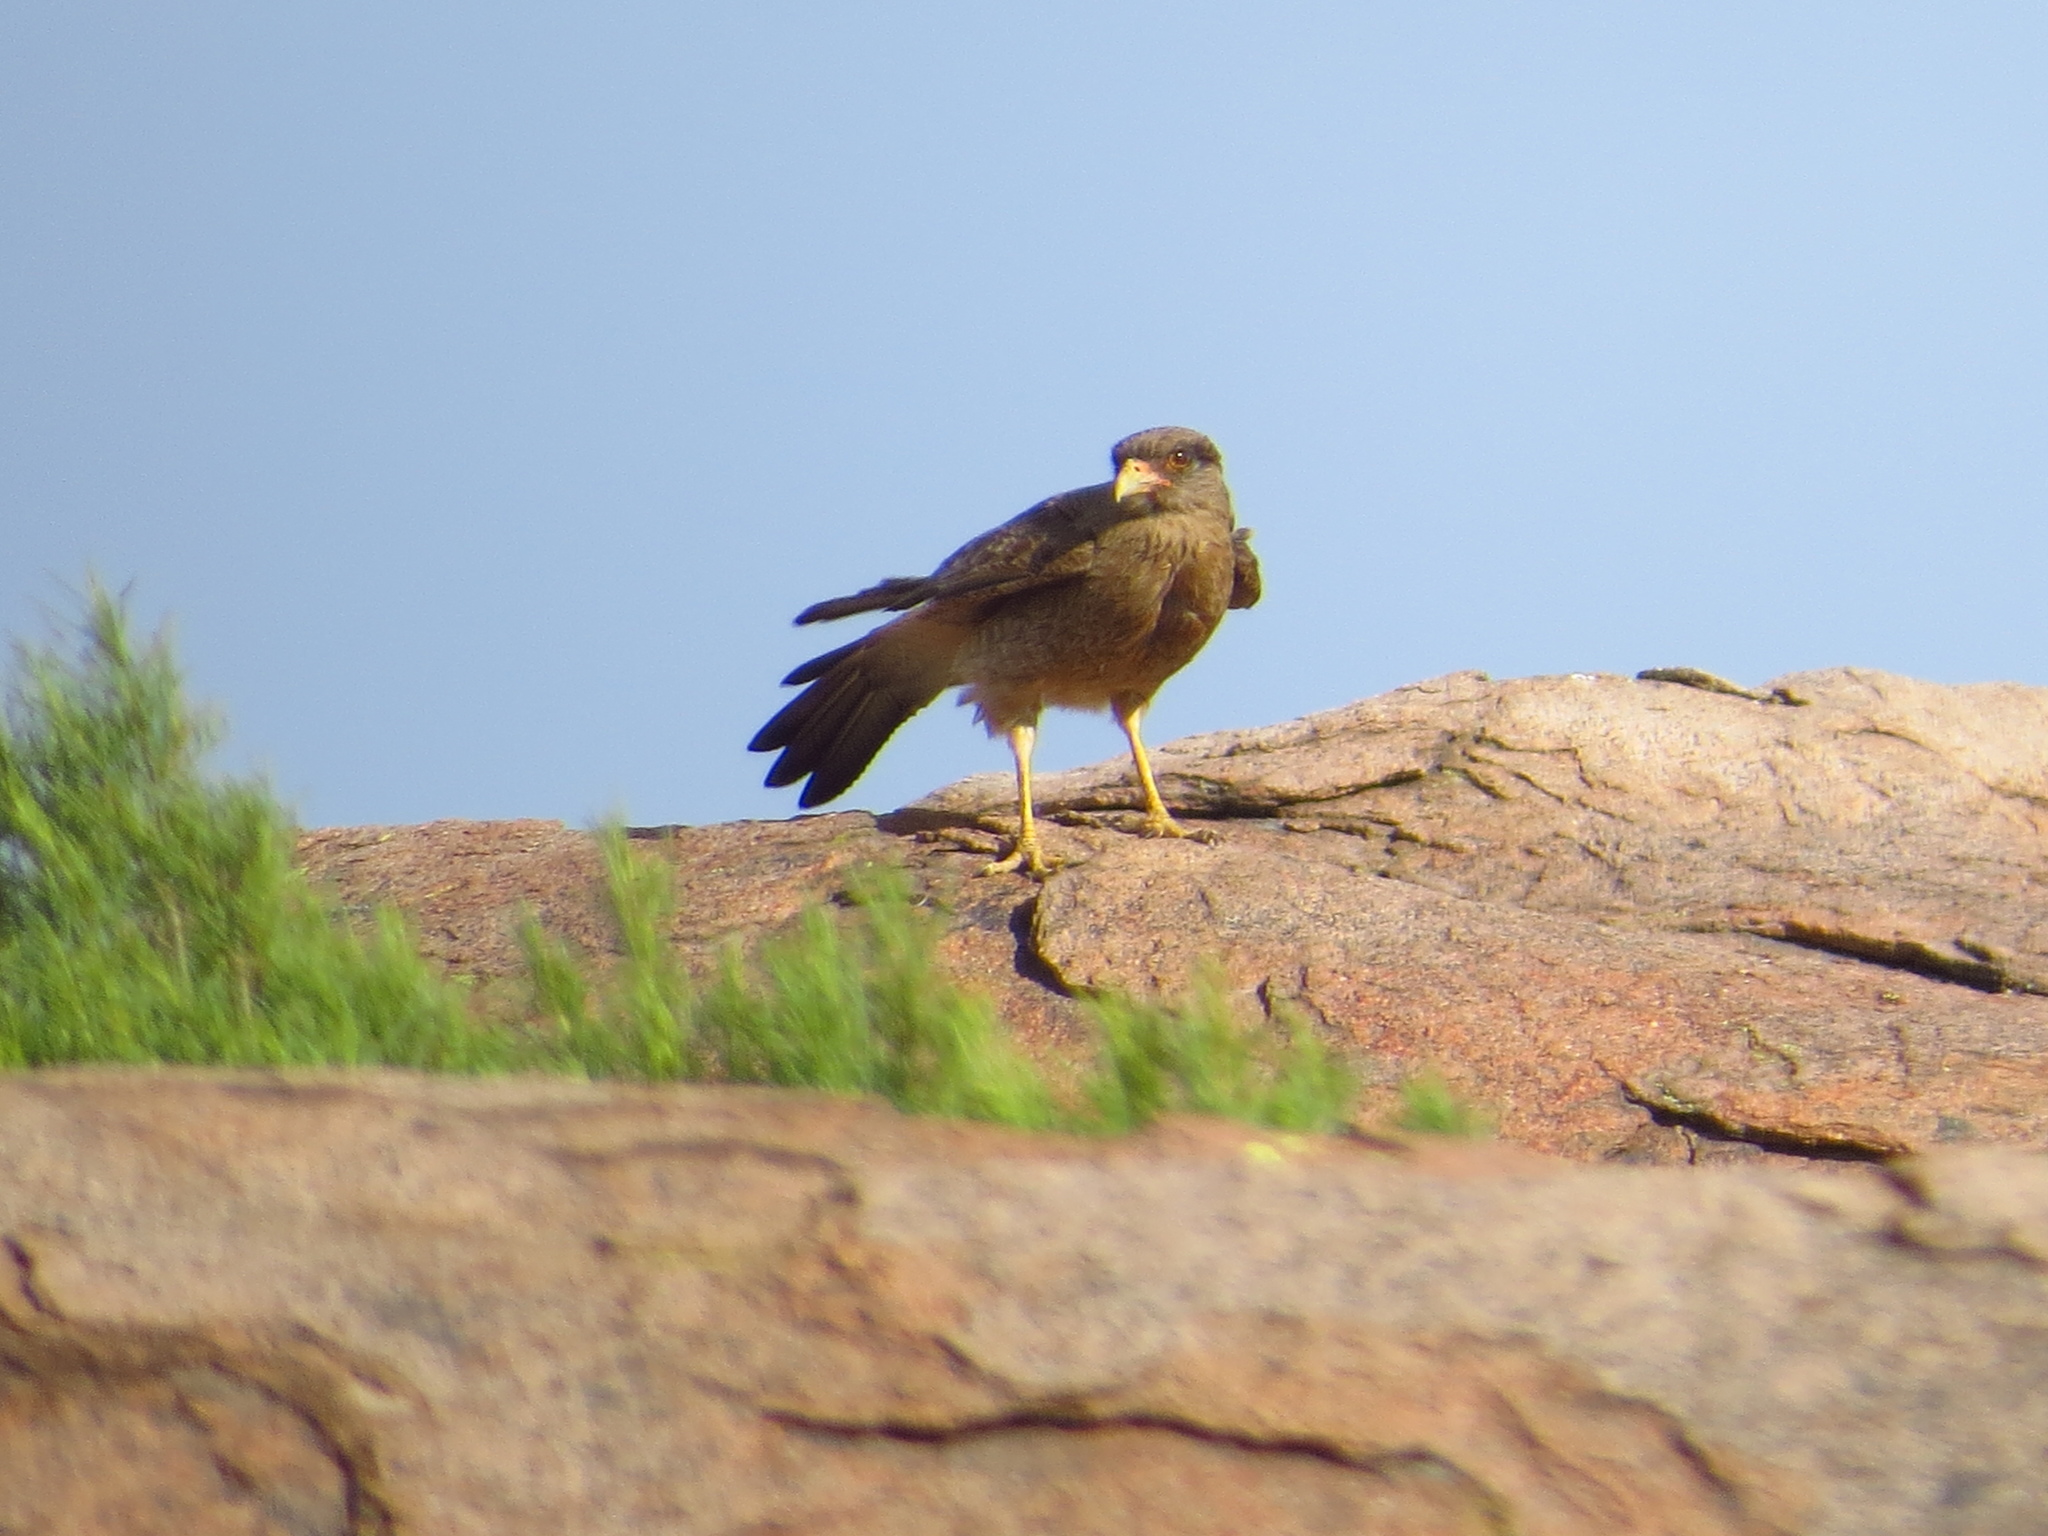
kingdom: Animalia
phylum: Chordata
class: Aves
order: Falconiformes
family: Falconidae
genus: Daptrius
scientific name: Daptrius
